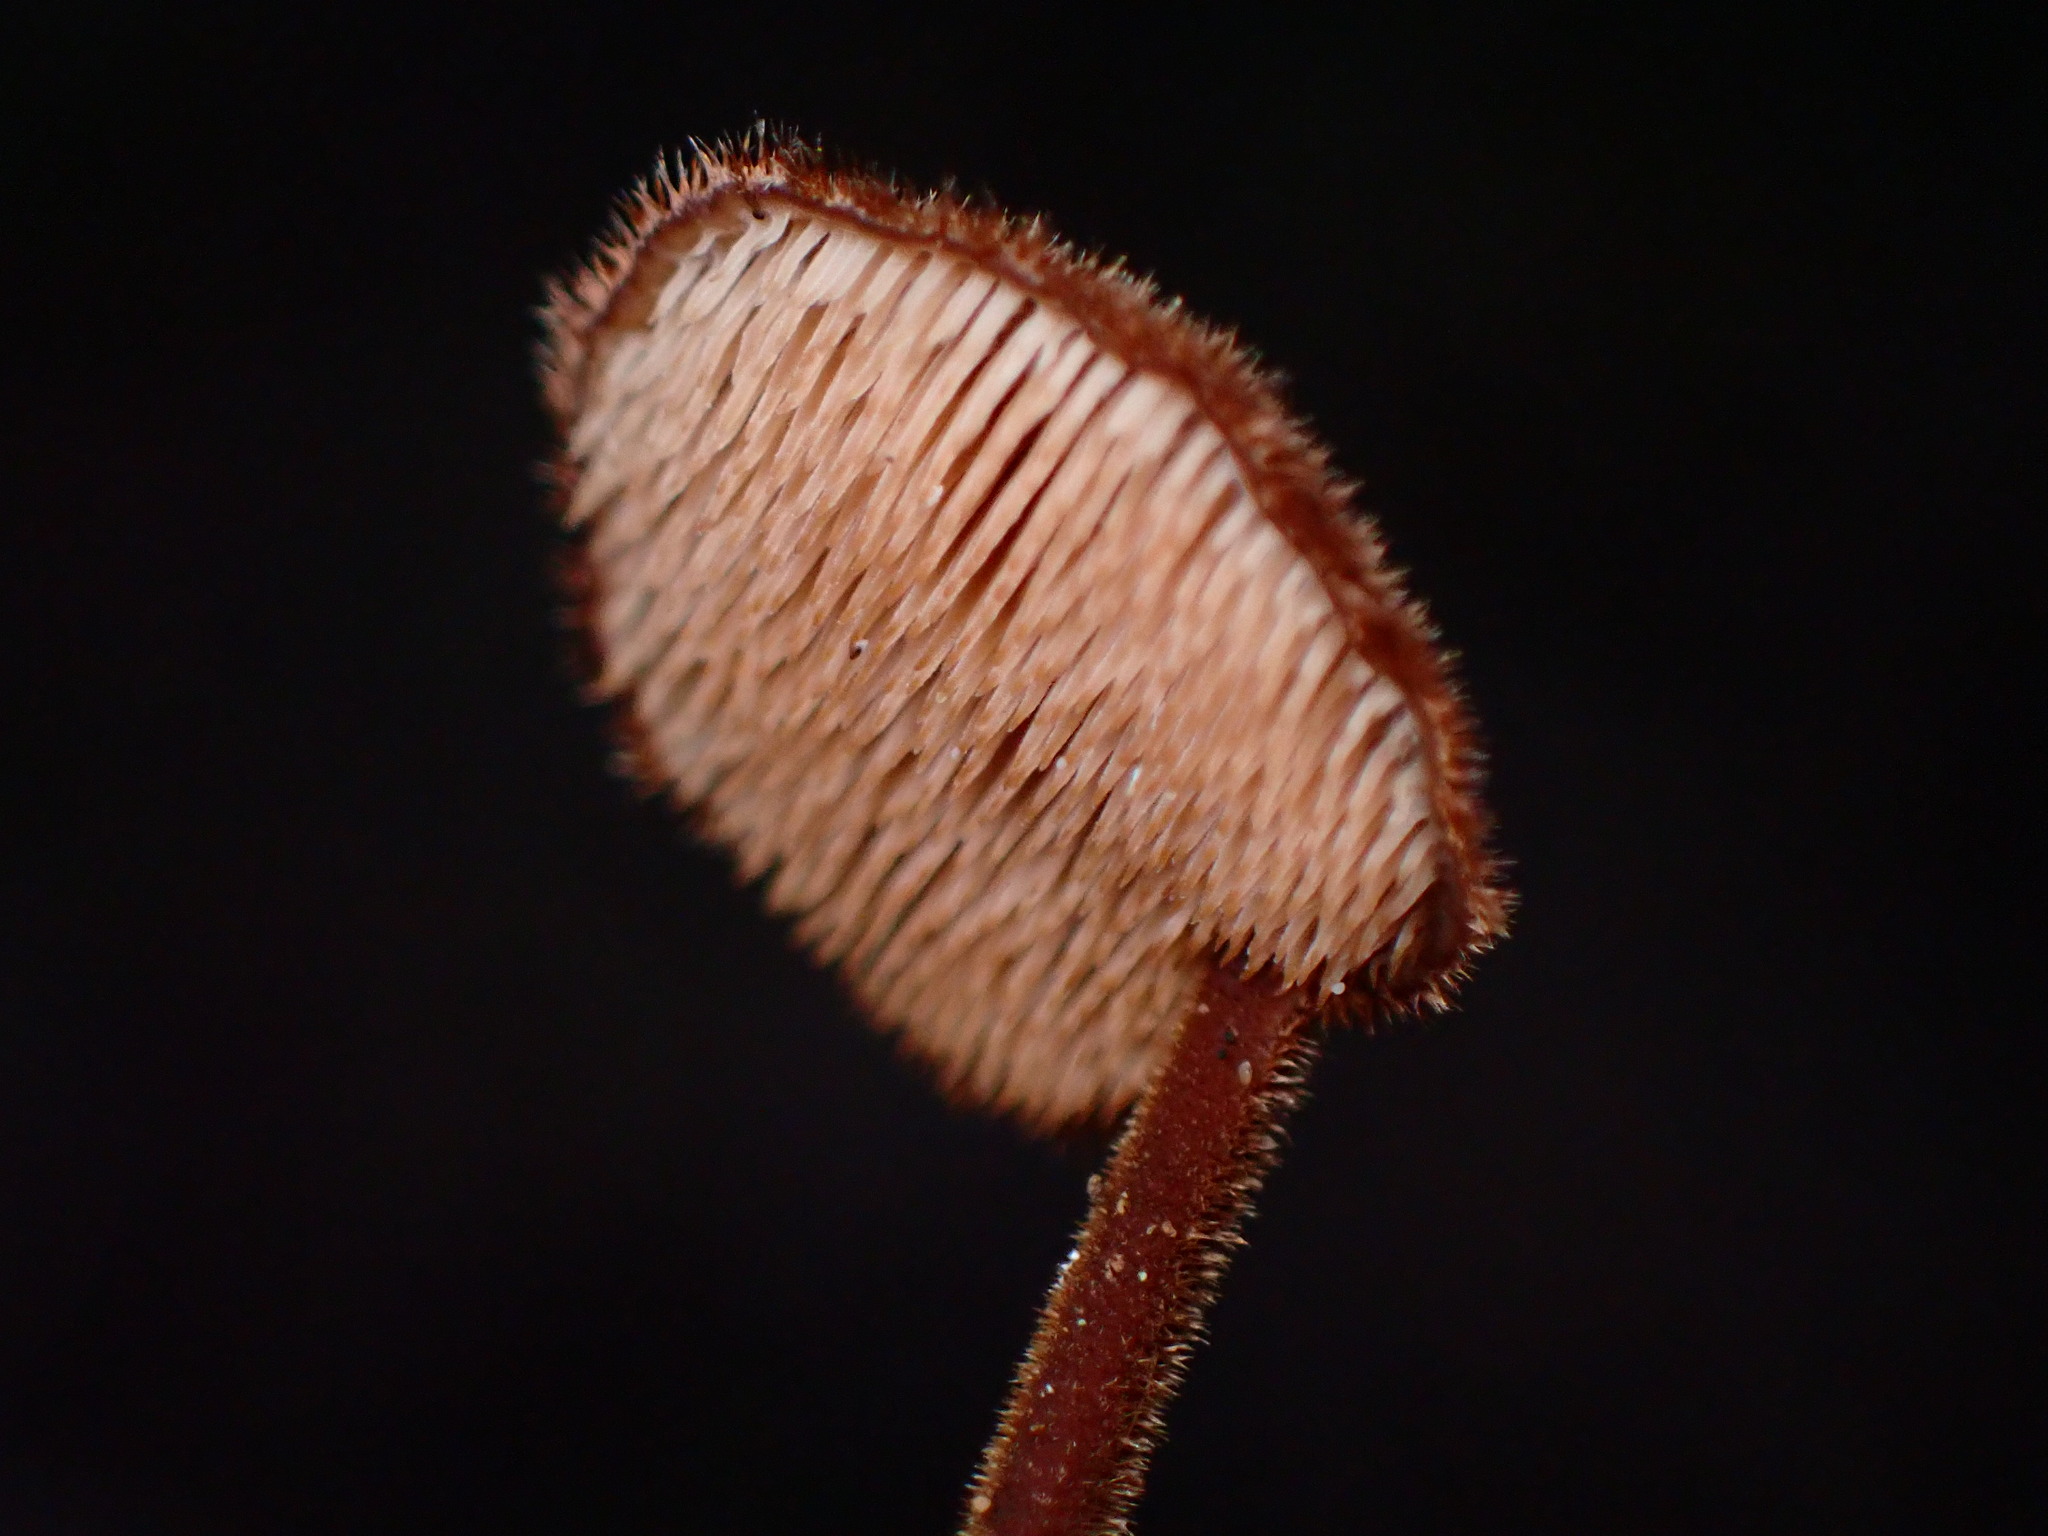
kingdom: Fungi
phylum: Basidiomycota
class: Agaricomycetes
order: Russulales
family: Auriscalpiaceae
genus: Auriscalpium
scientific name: Auriscalpium vulgare
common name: Earpick fungus
